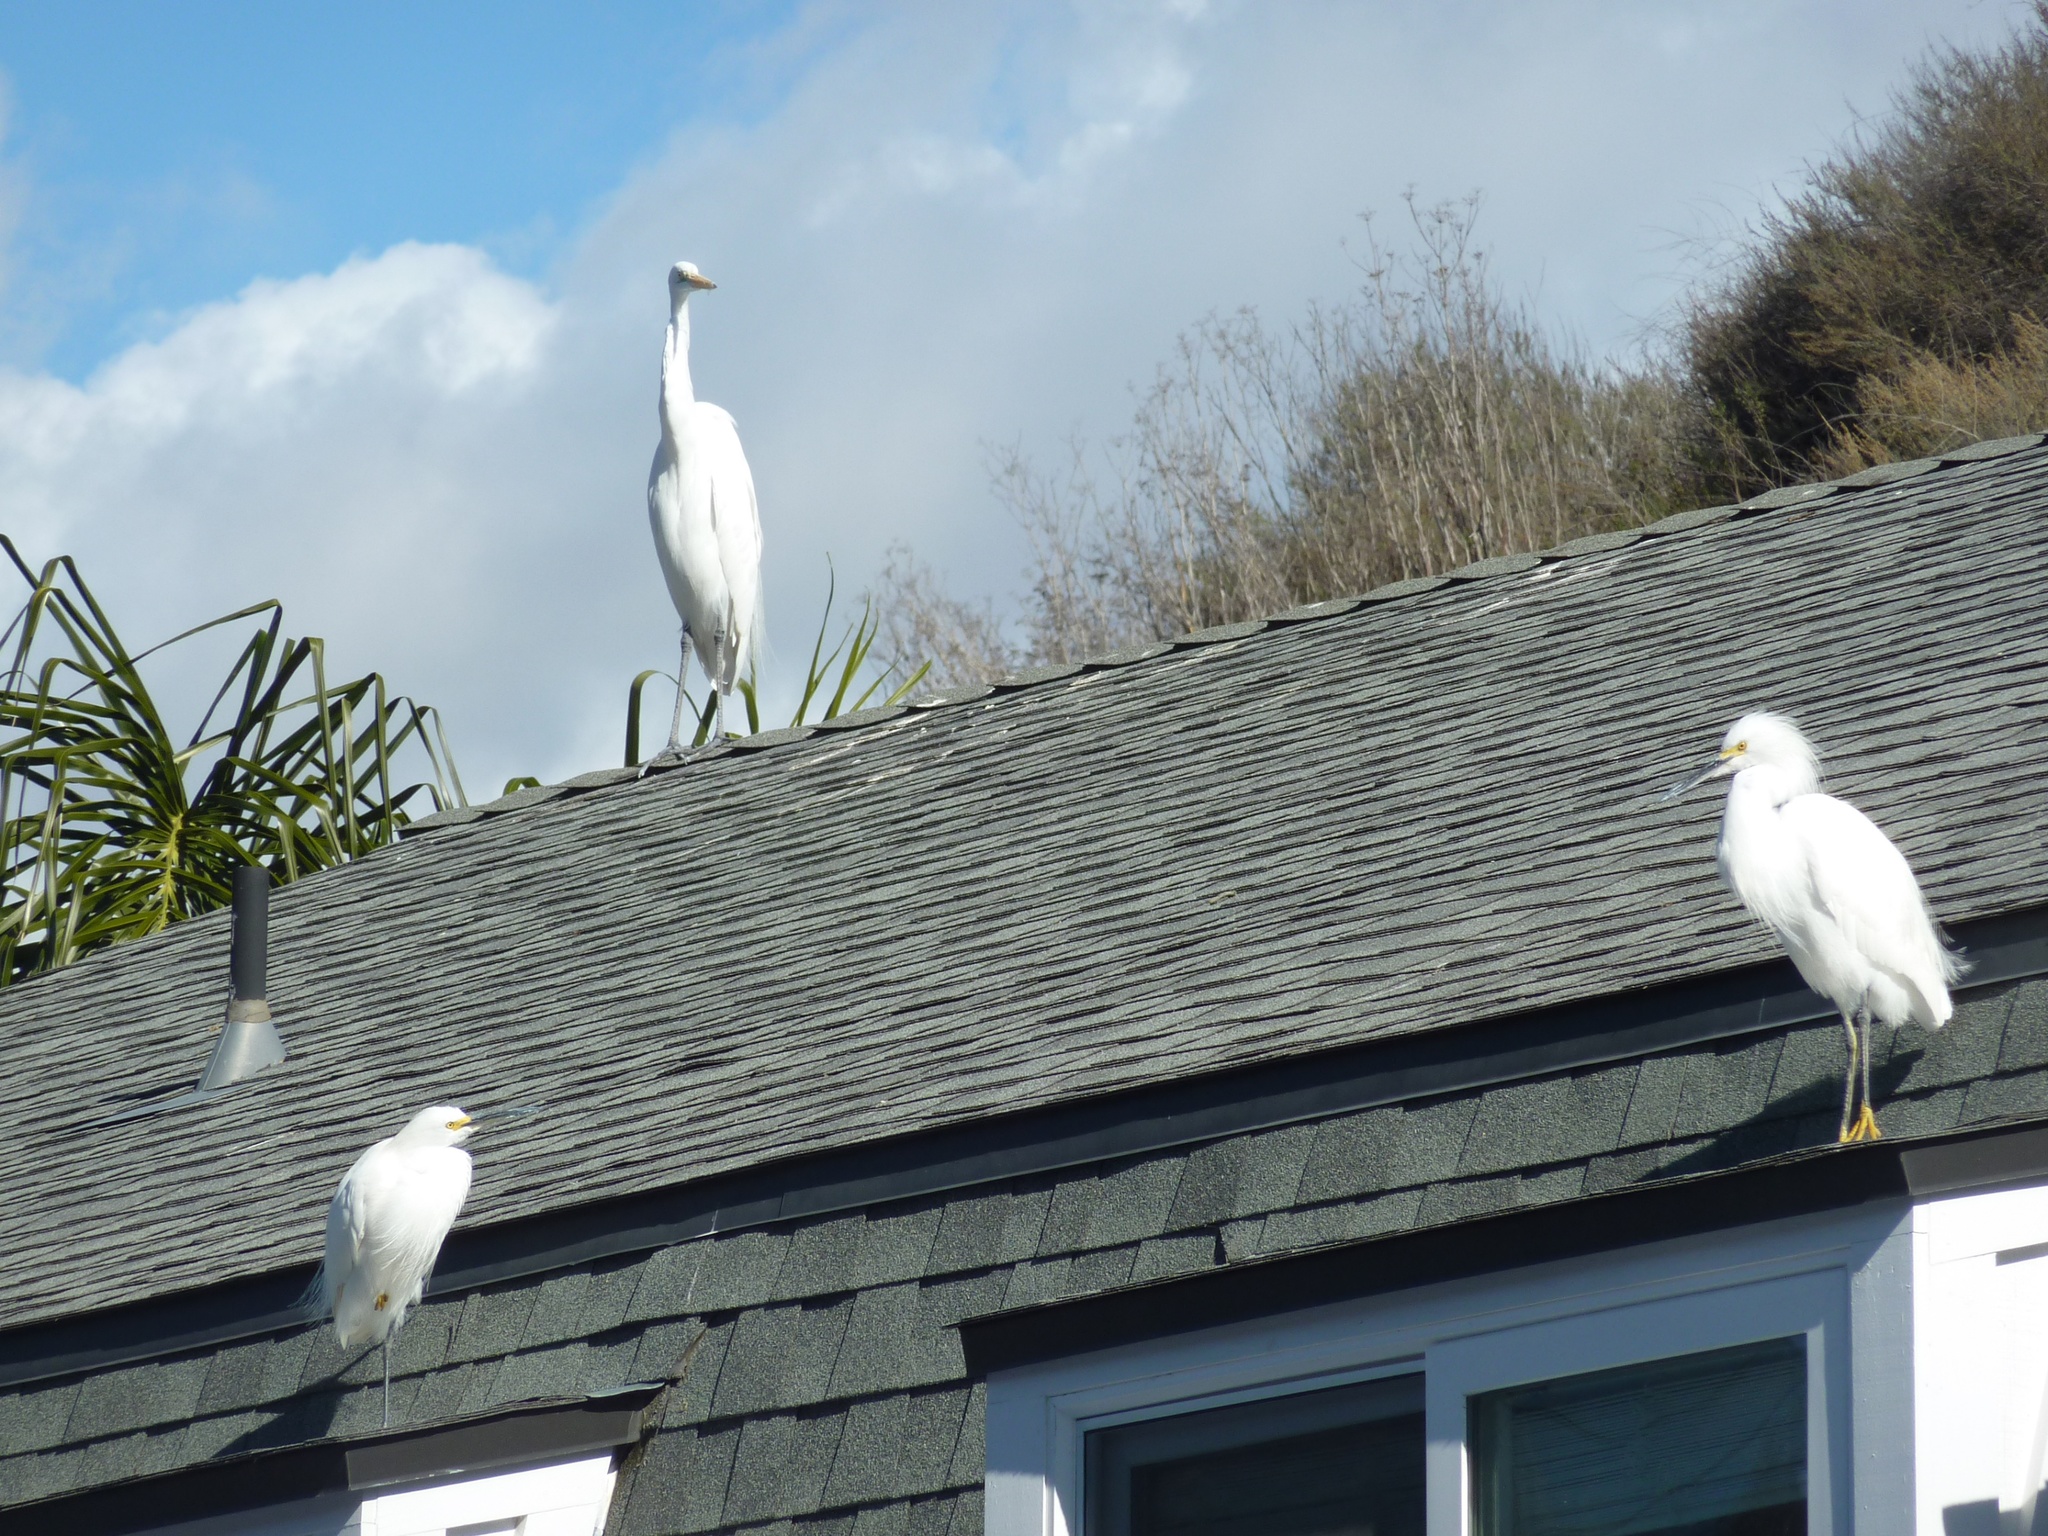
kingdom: Animalia
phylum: Chordata
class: Aves
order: Pelecaniformes
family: Ardeidae
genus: Egretta
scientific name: Egretta thula
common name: Snowy egret
